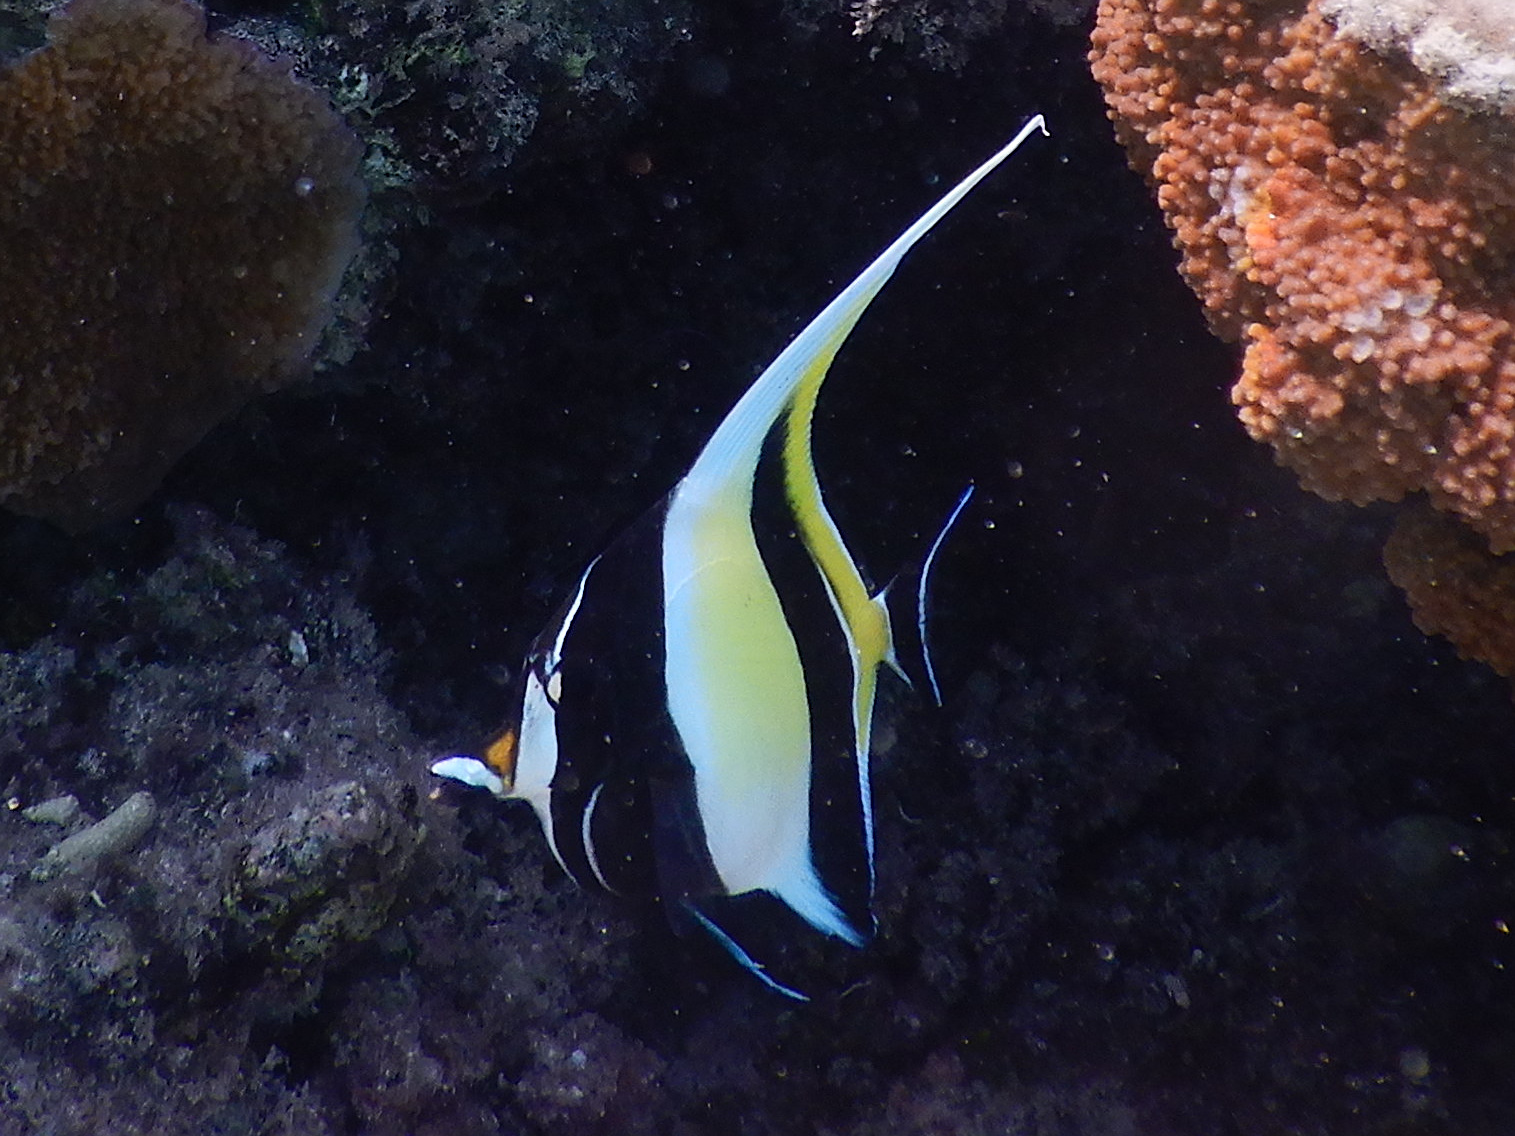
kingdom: Animalia
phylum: Chordata
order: Perciformes
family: Zanclidae
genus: Zanclus
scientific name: Zanclus cornutus
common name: Moorish idol
